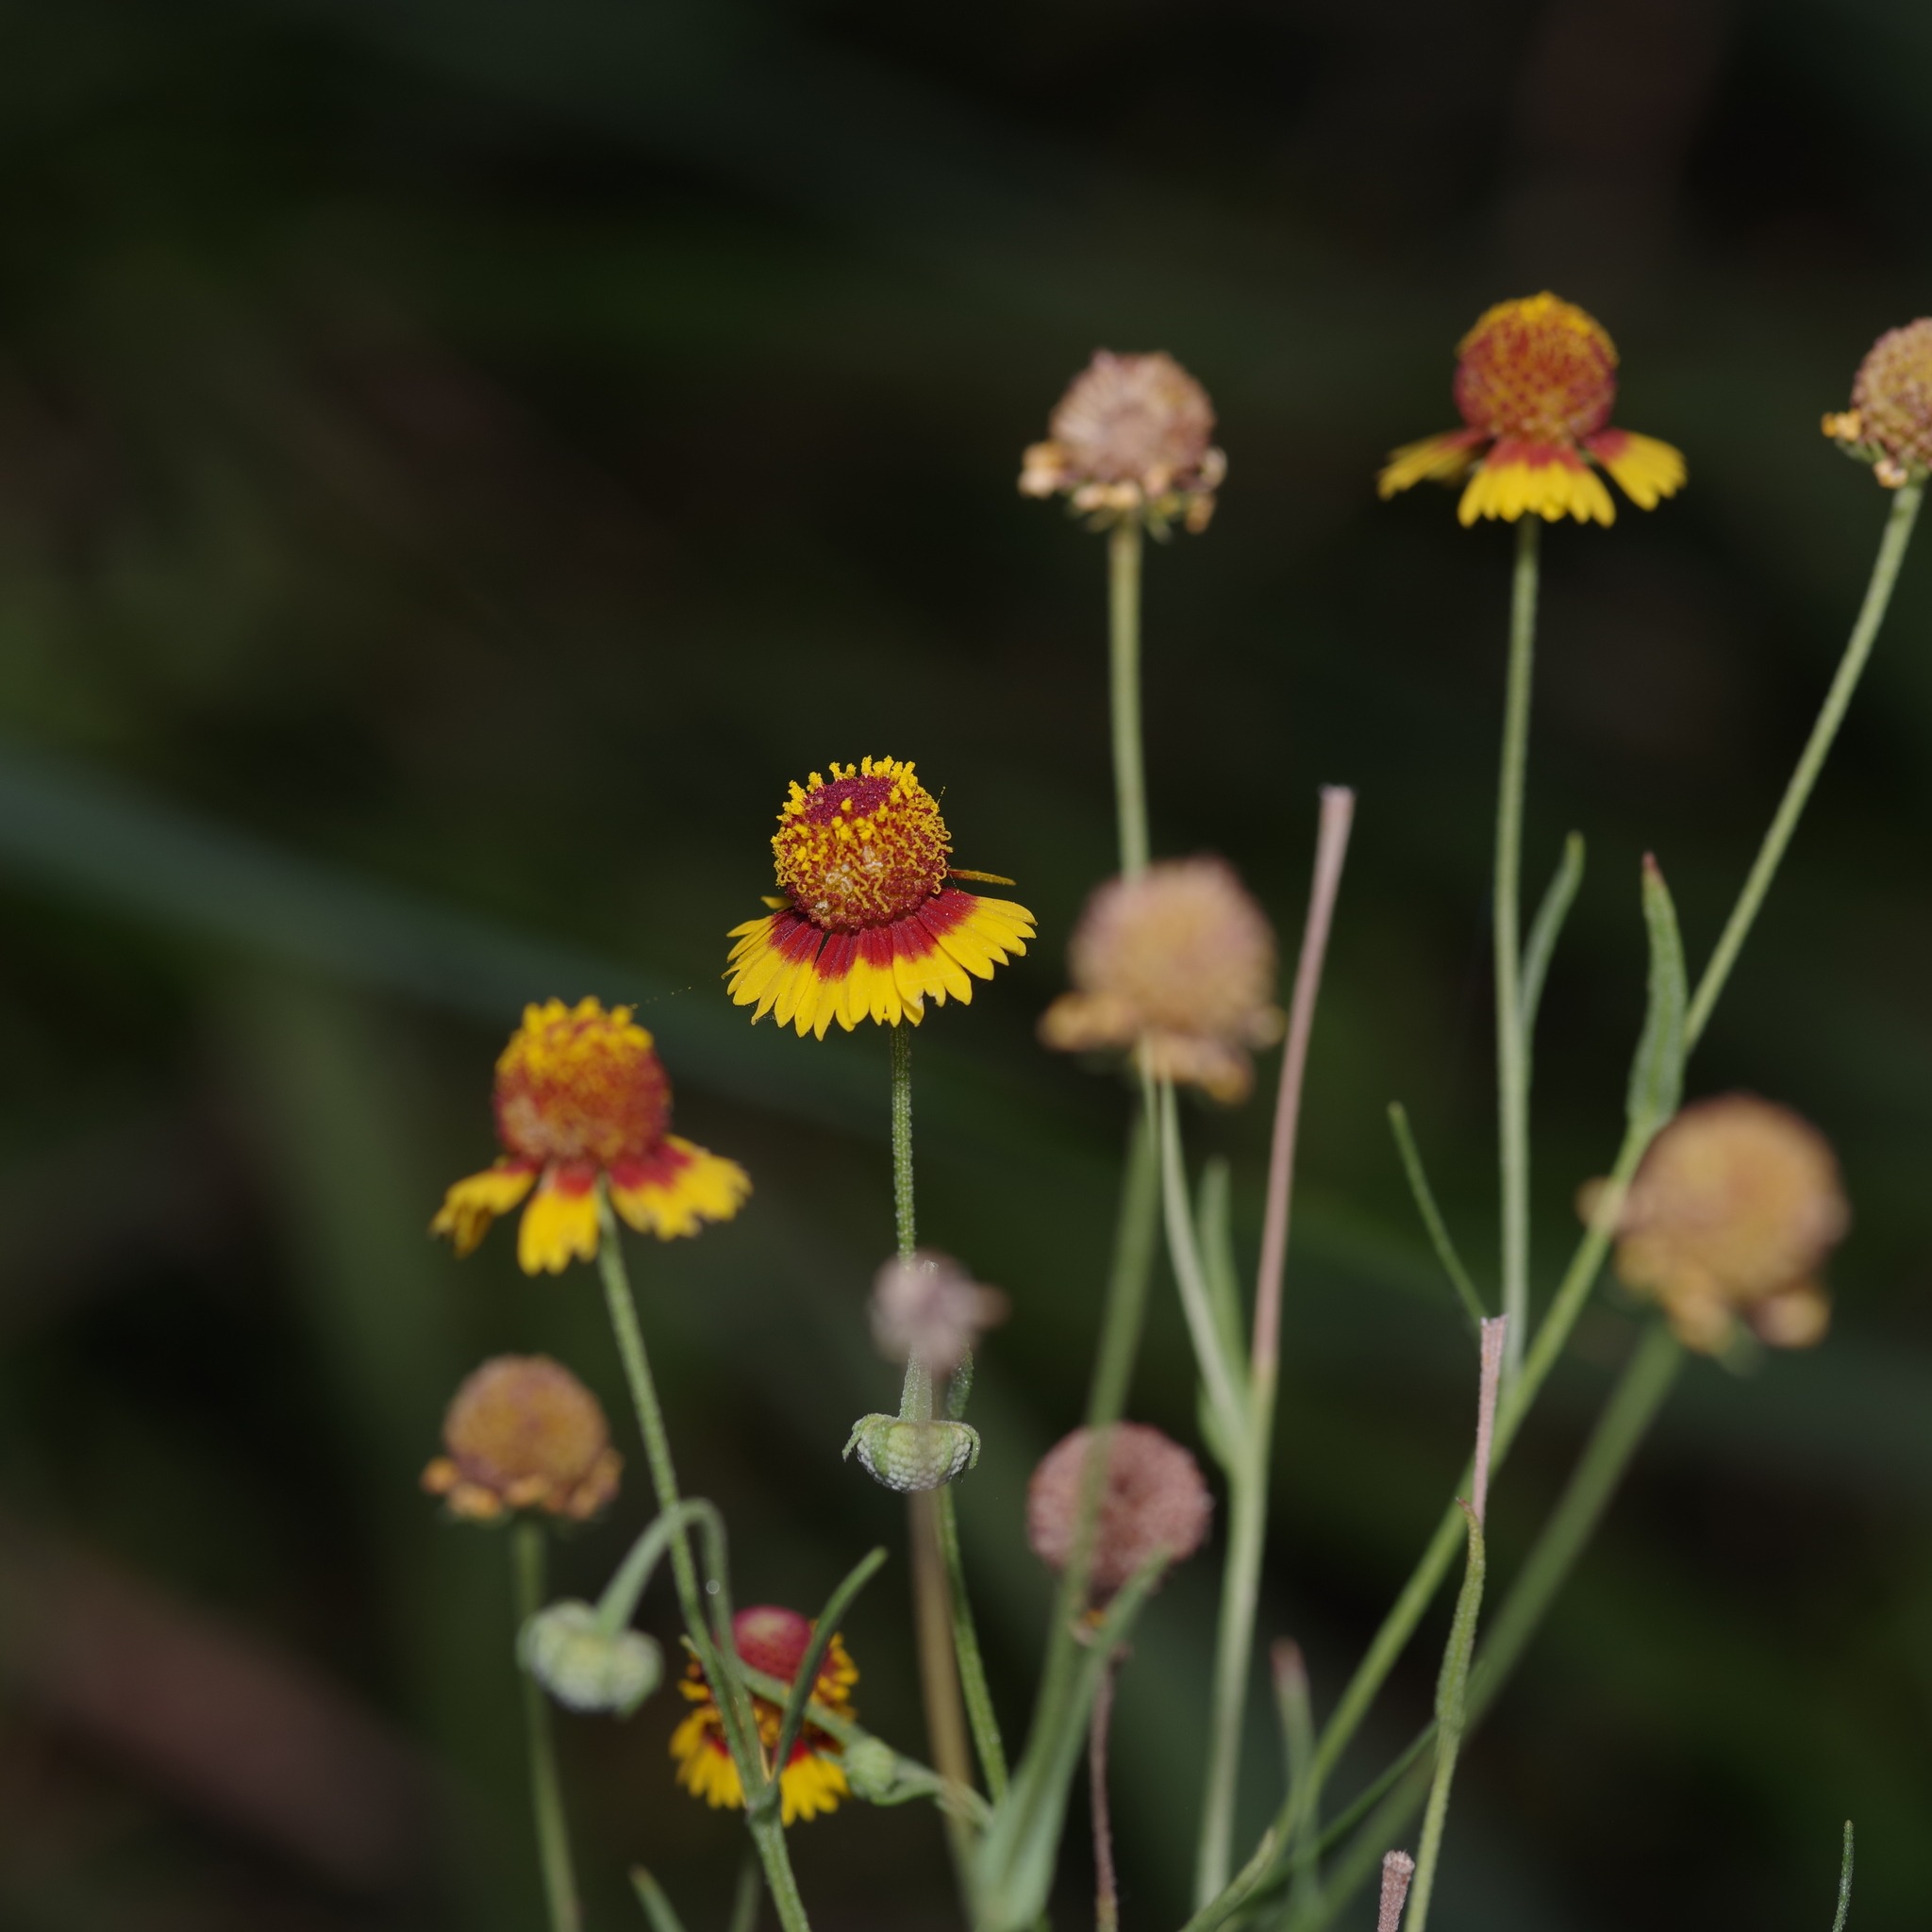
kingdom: Plantae
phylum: Tracheophyta
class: Magnoliopsida
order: Asterales
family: Asteraceae
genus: Helenium
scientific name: Helenium elegans
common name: Pretty sneezeweed
